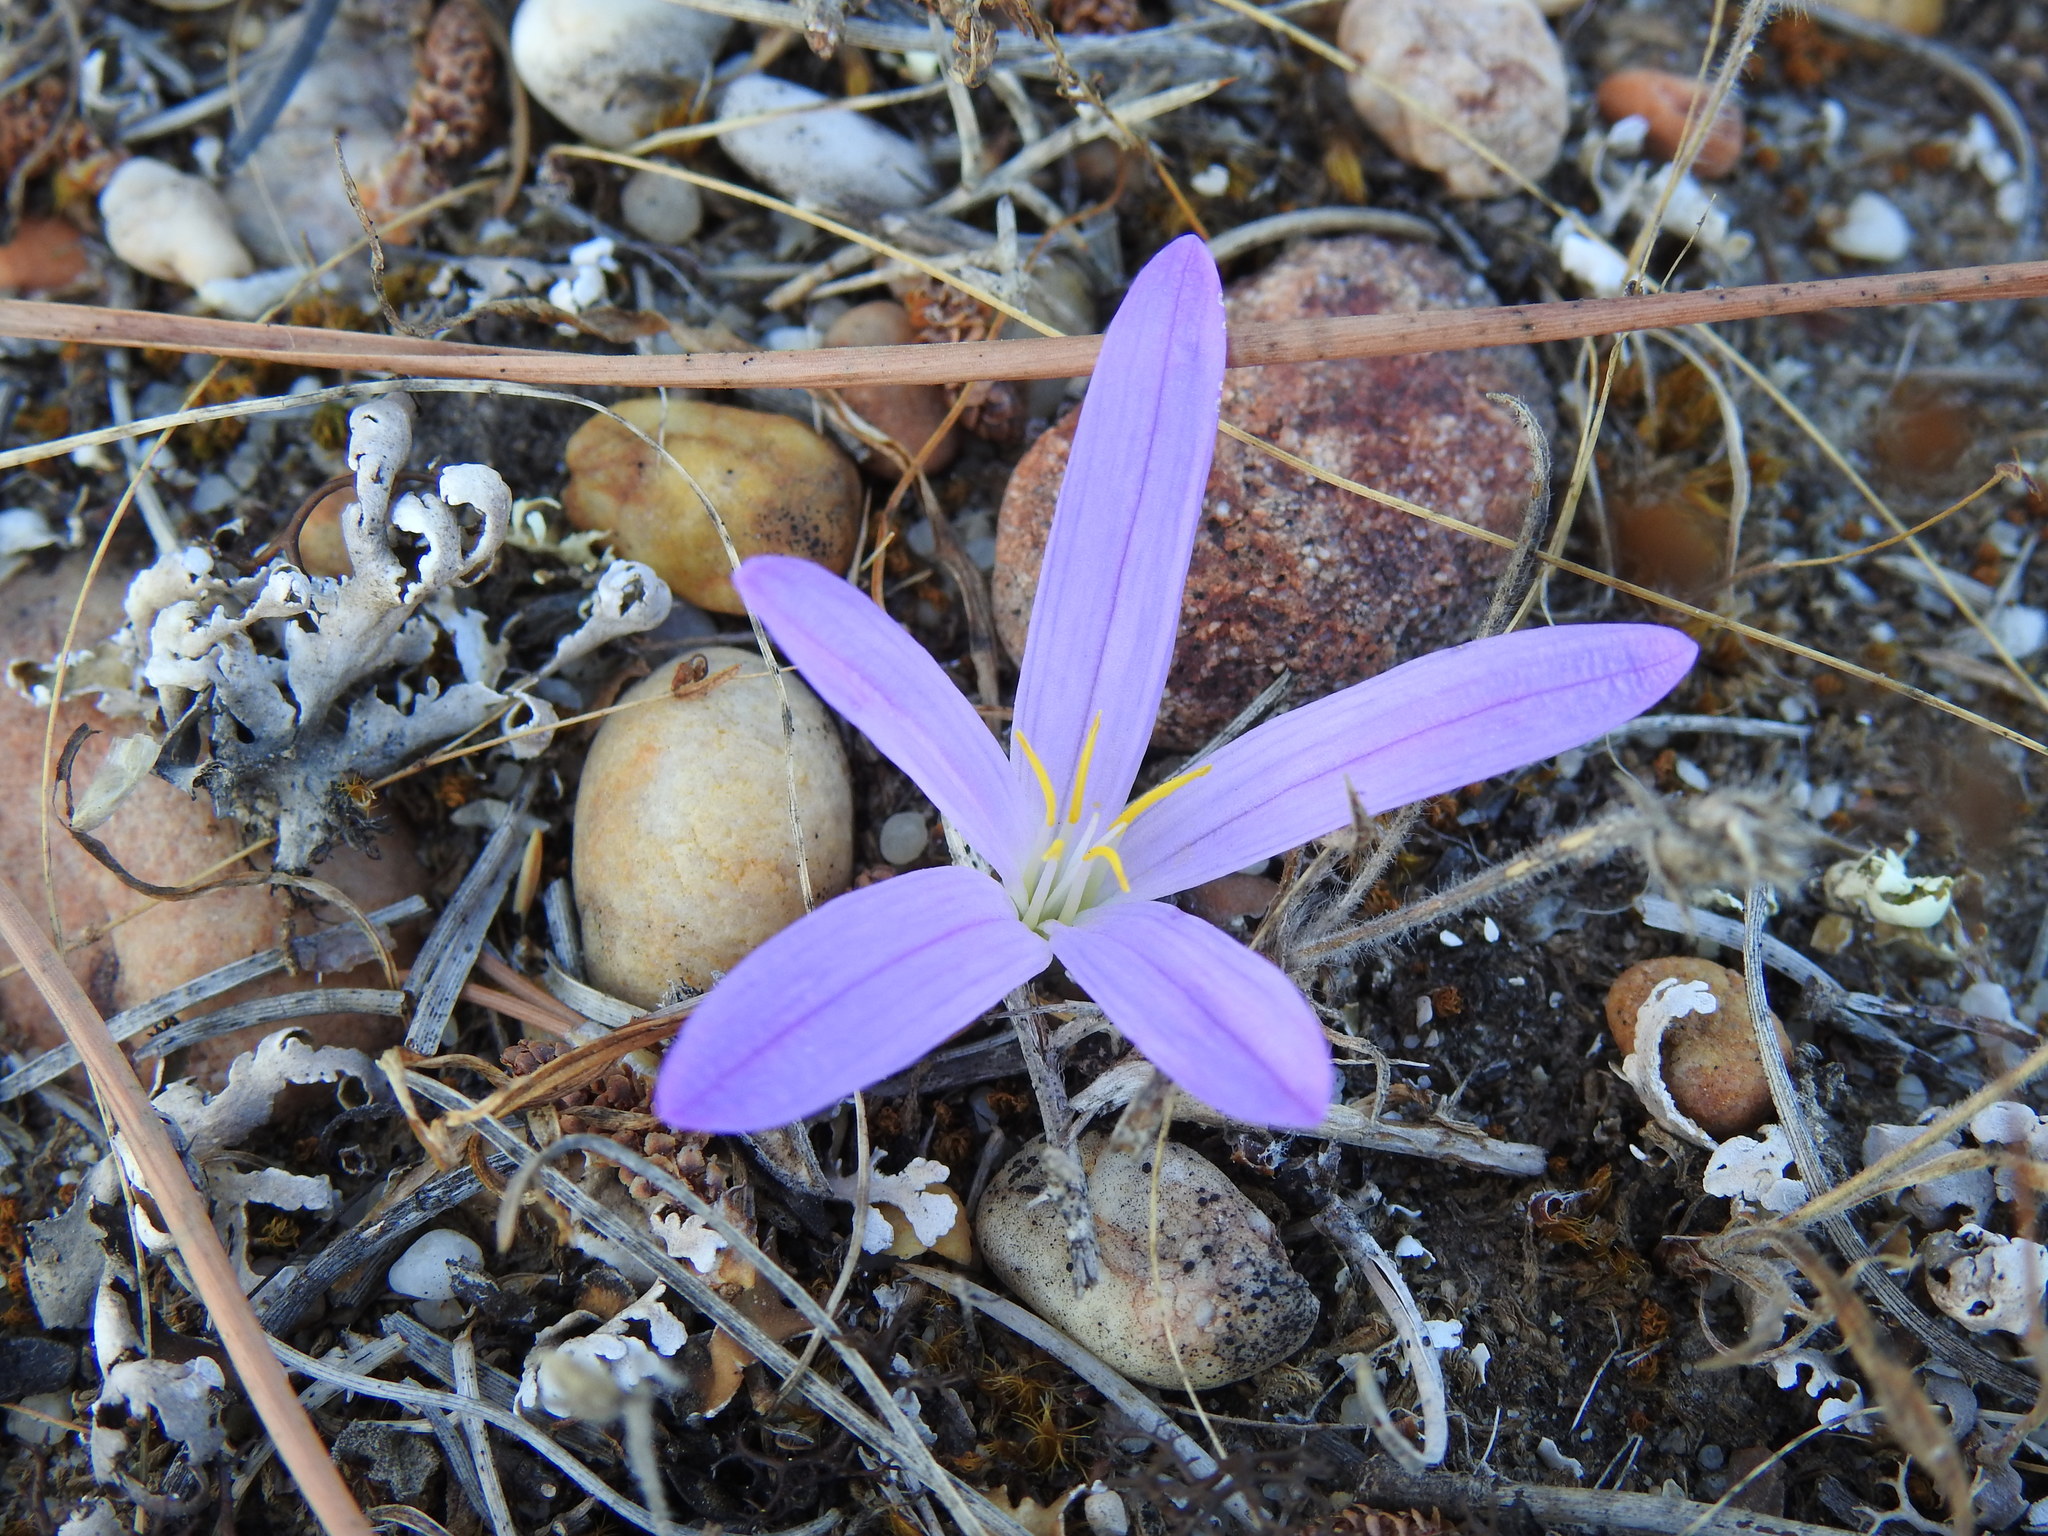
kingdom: Plantae
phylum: Tracheophyta
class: Liliopsida
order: Liliales
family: Colchicaceae
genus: Colchicum
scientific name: Colchicum filifolium
